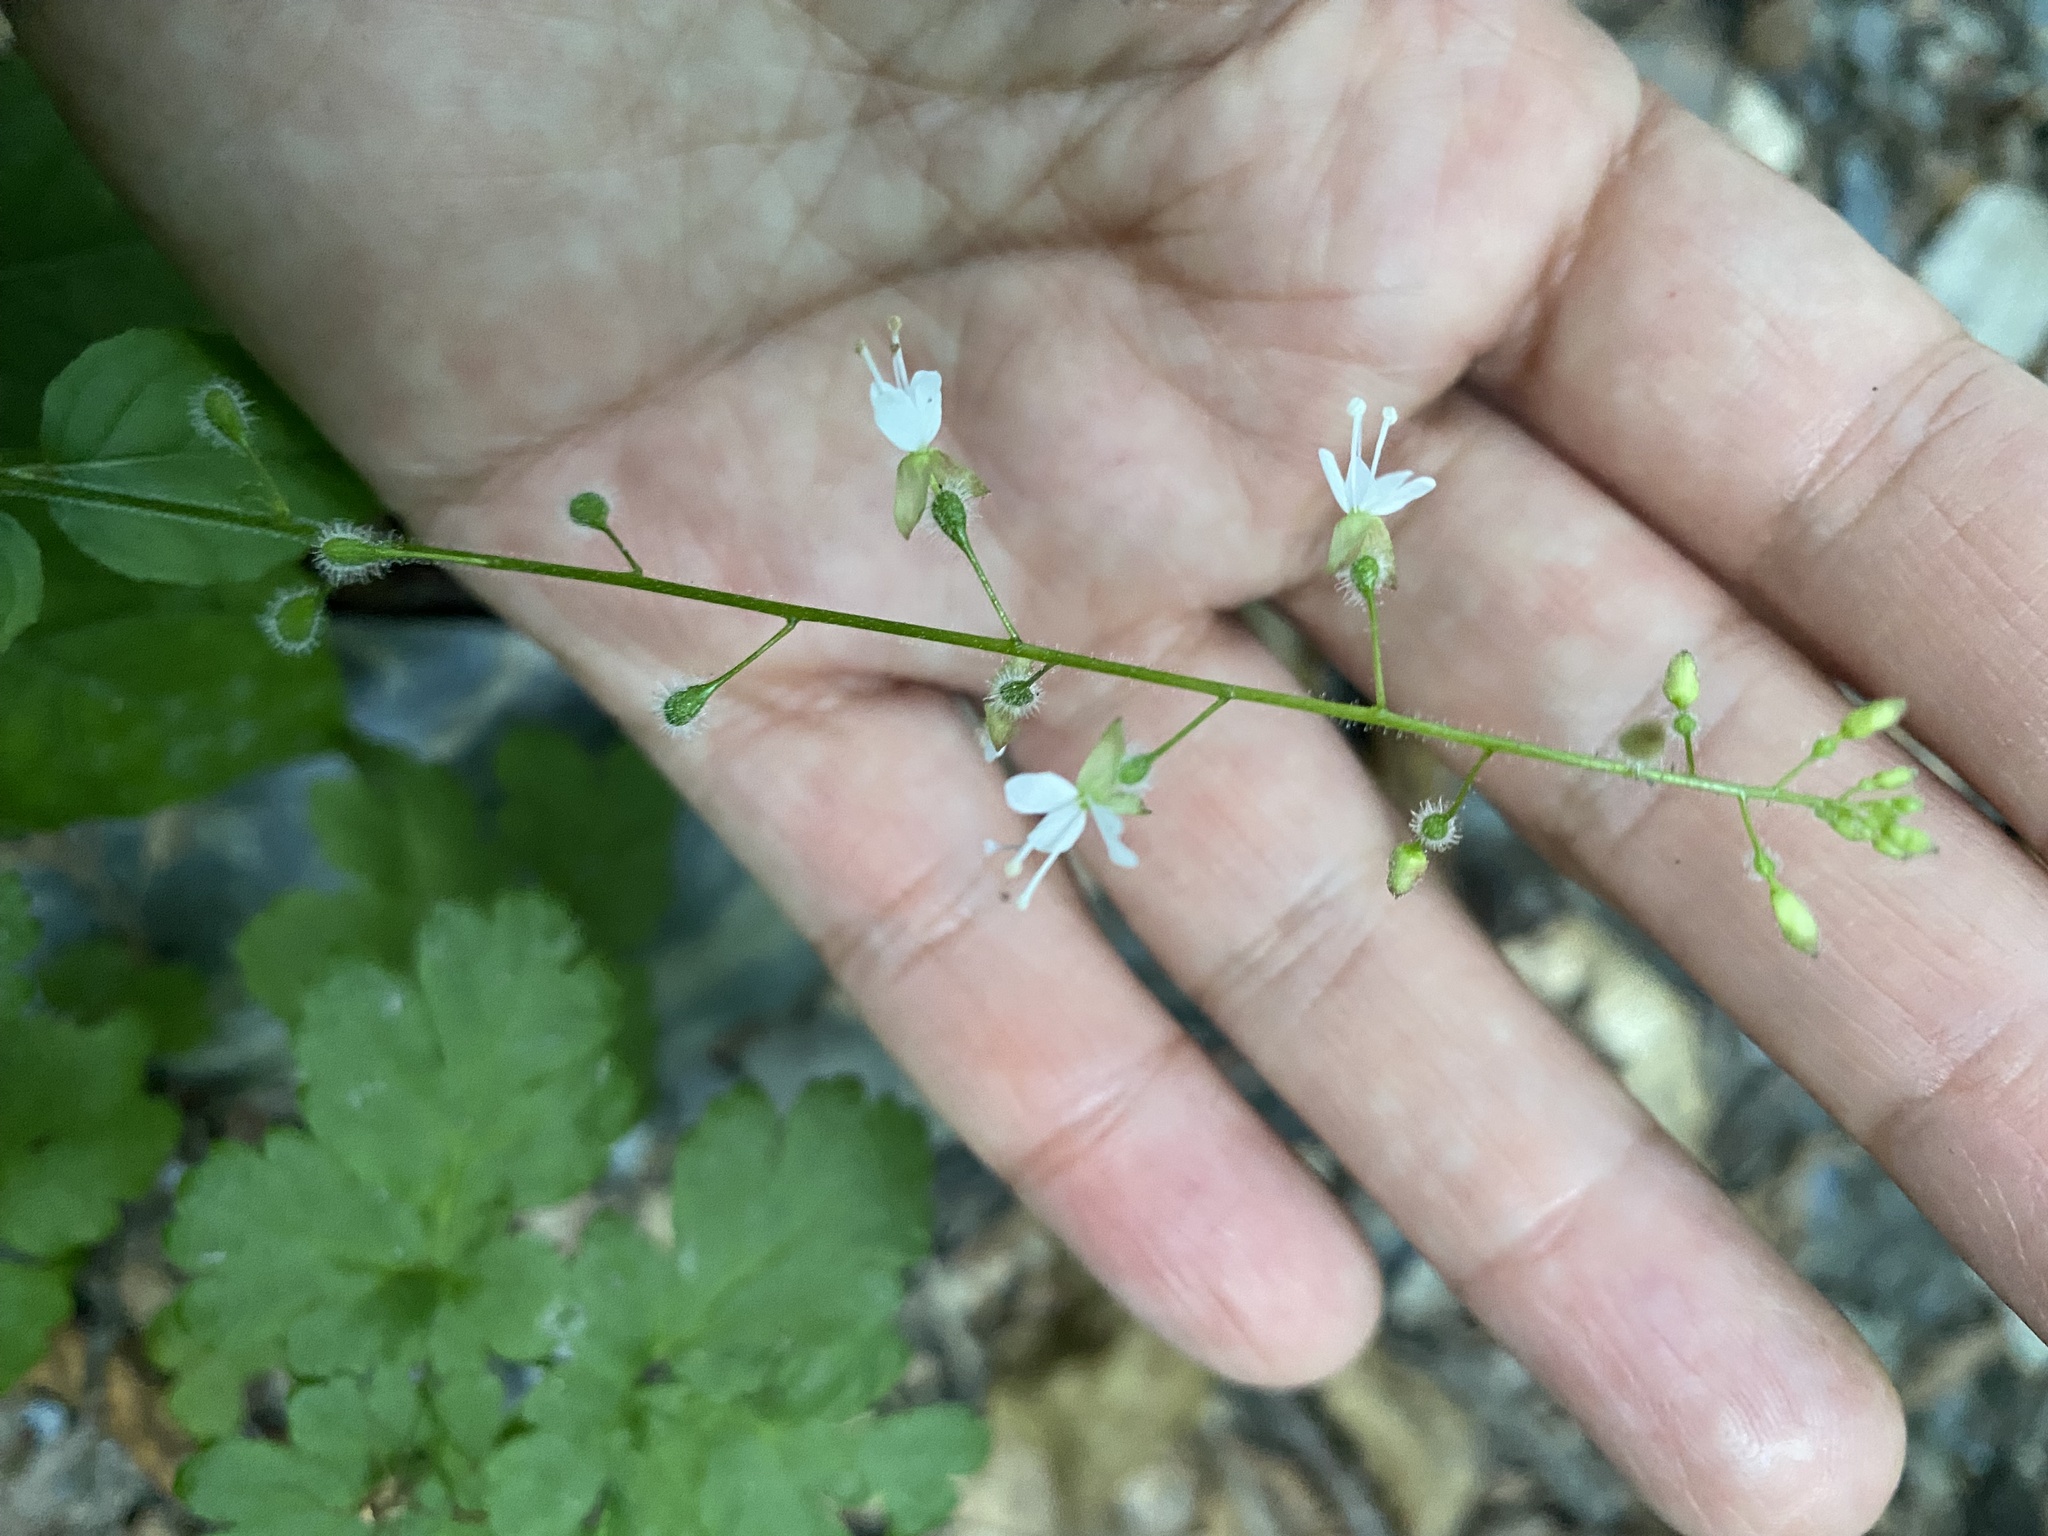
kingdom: Plantae
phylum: Tracheophyta
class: Magnoliopsida
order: Myrtales
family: Onagraceae
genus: Circaea
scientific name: Circaea lutetiana
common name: Enchanter's-nightshade
